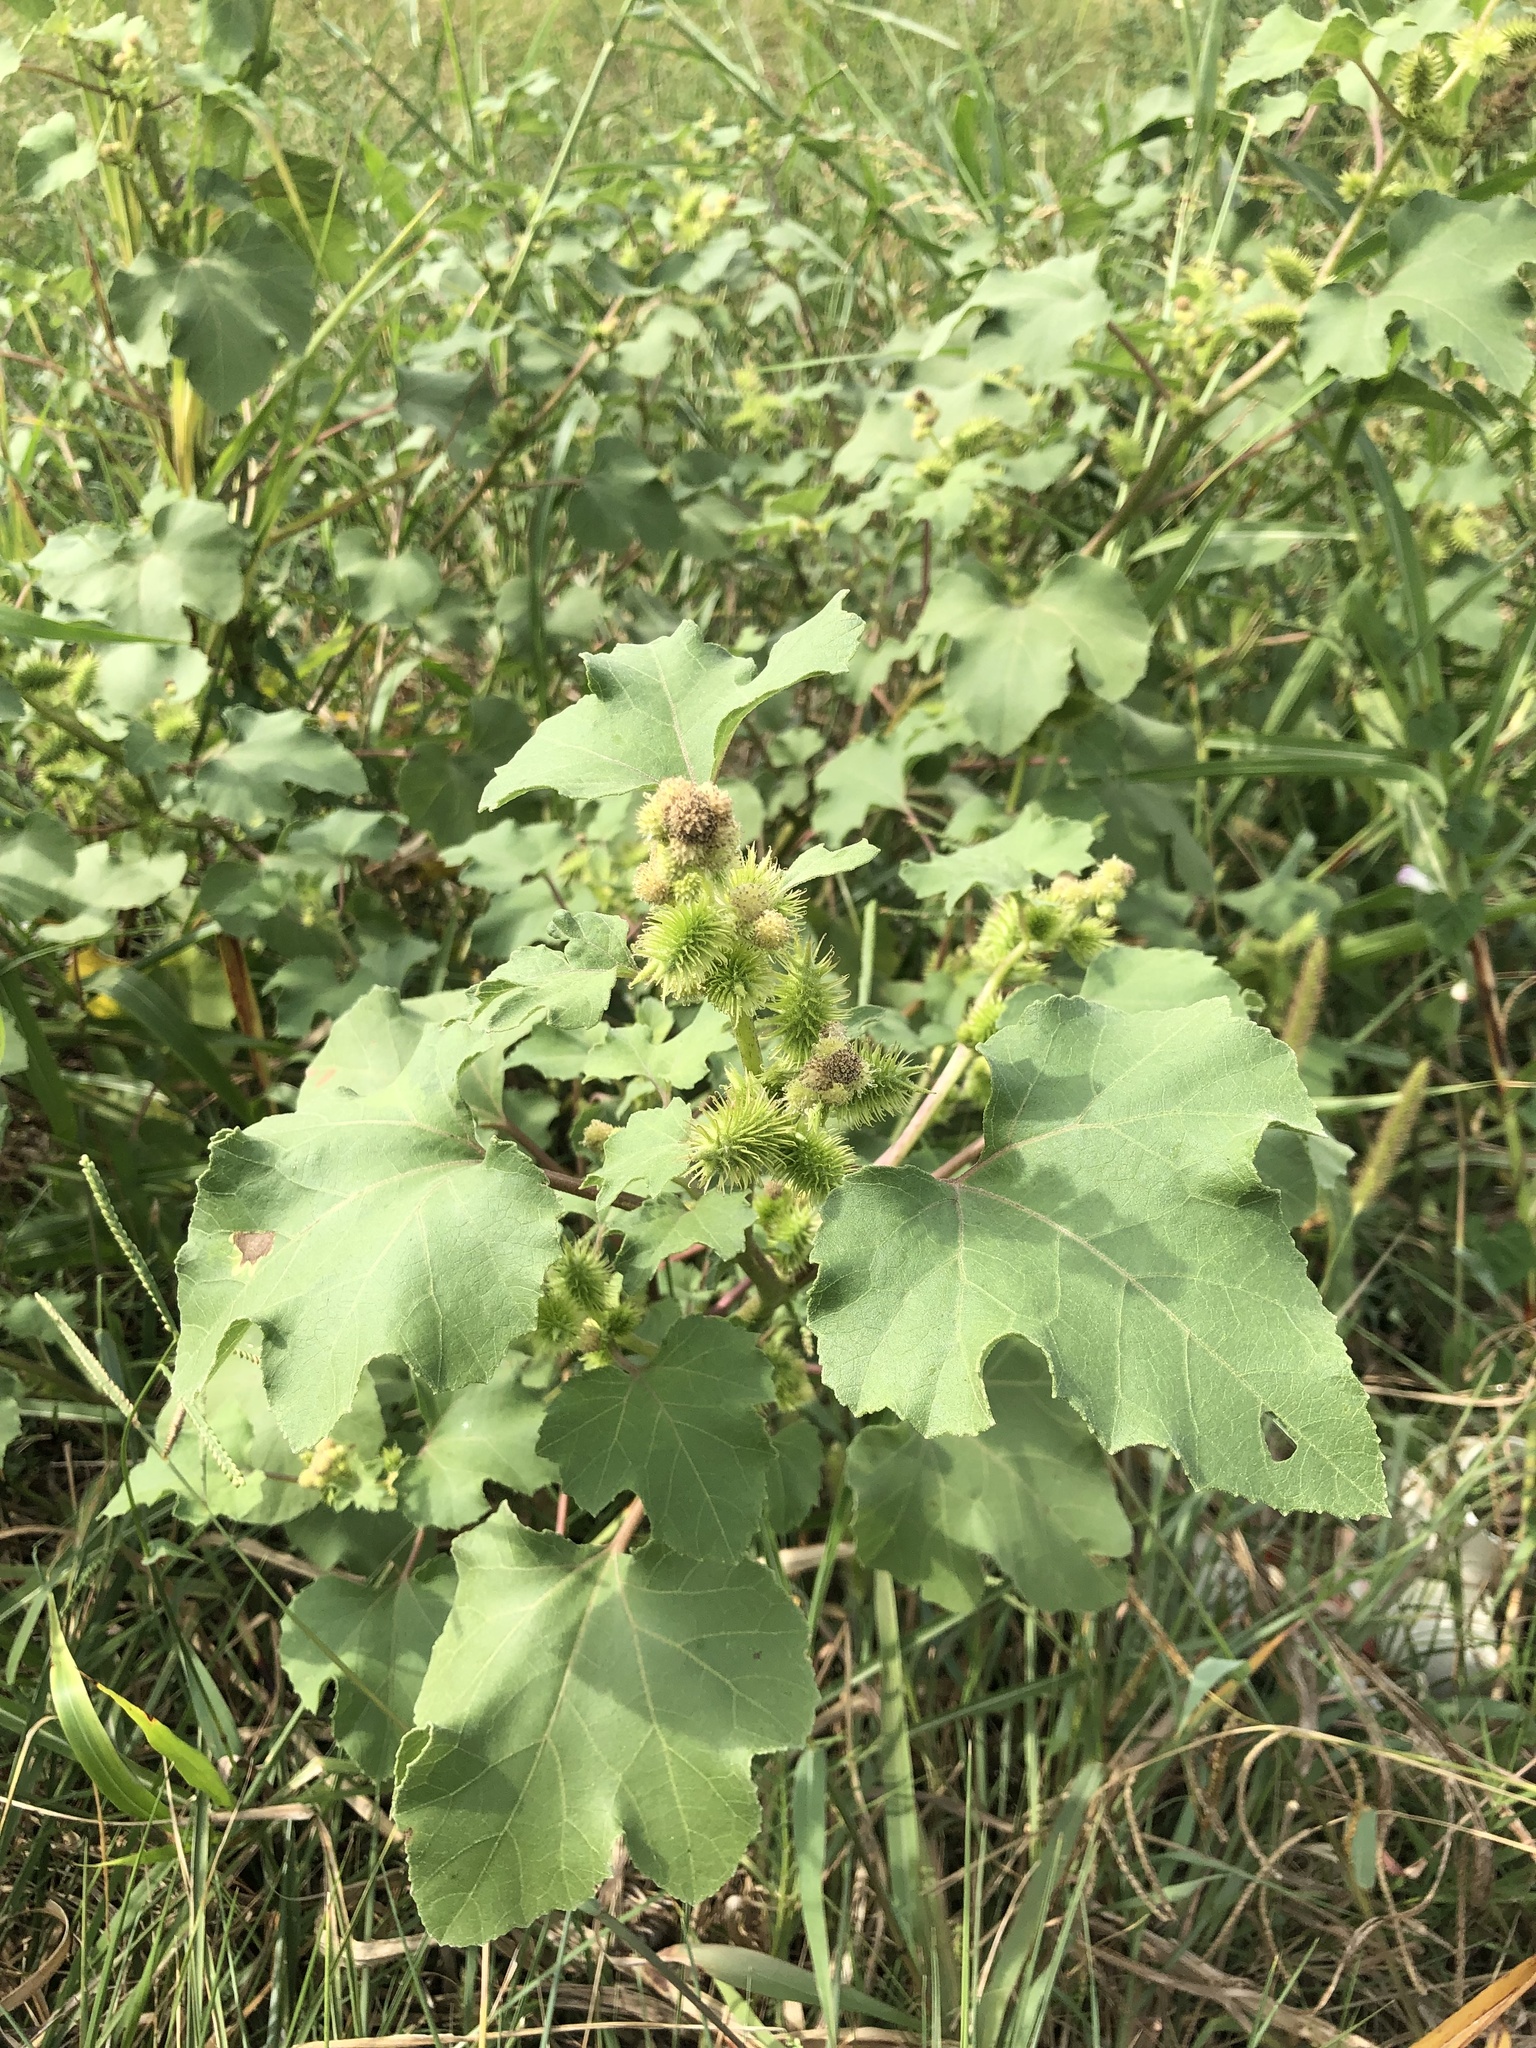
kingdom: Plantae
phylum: Tracheophyta
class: Magnoliopsida
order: Asterales
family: Asteraceae
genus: Xanthium
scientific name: Xanthium strumarium
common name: Rough cocklebur
